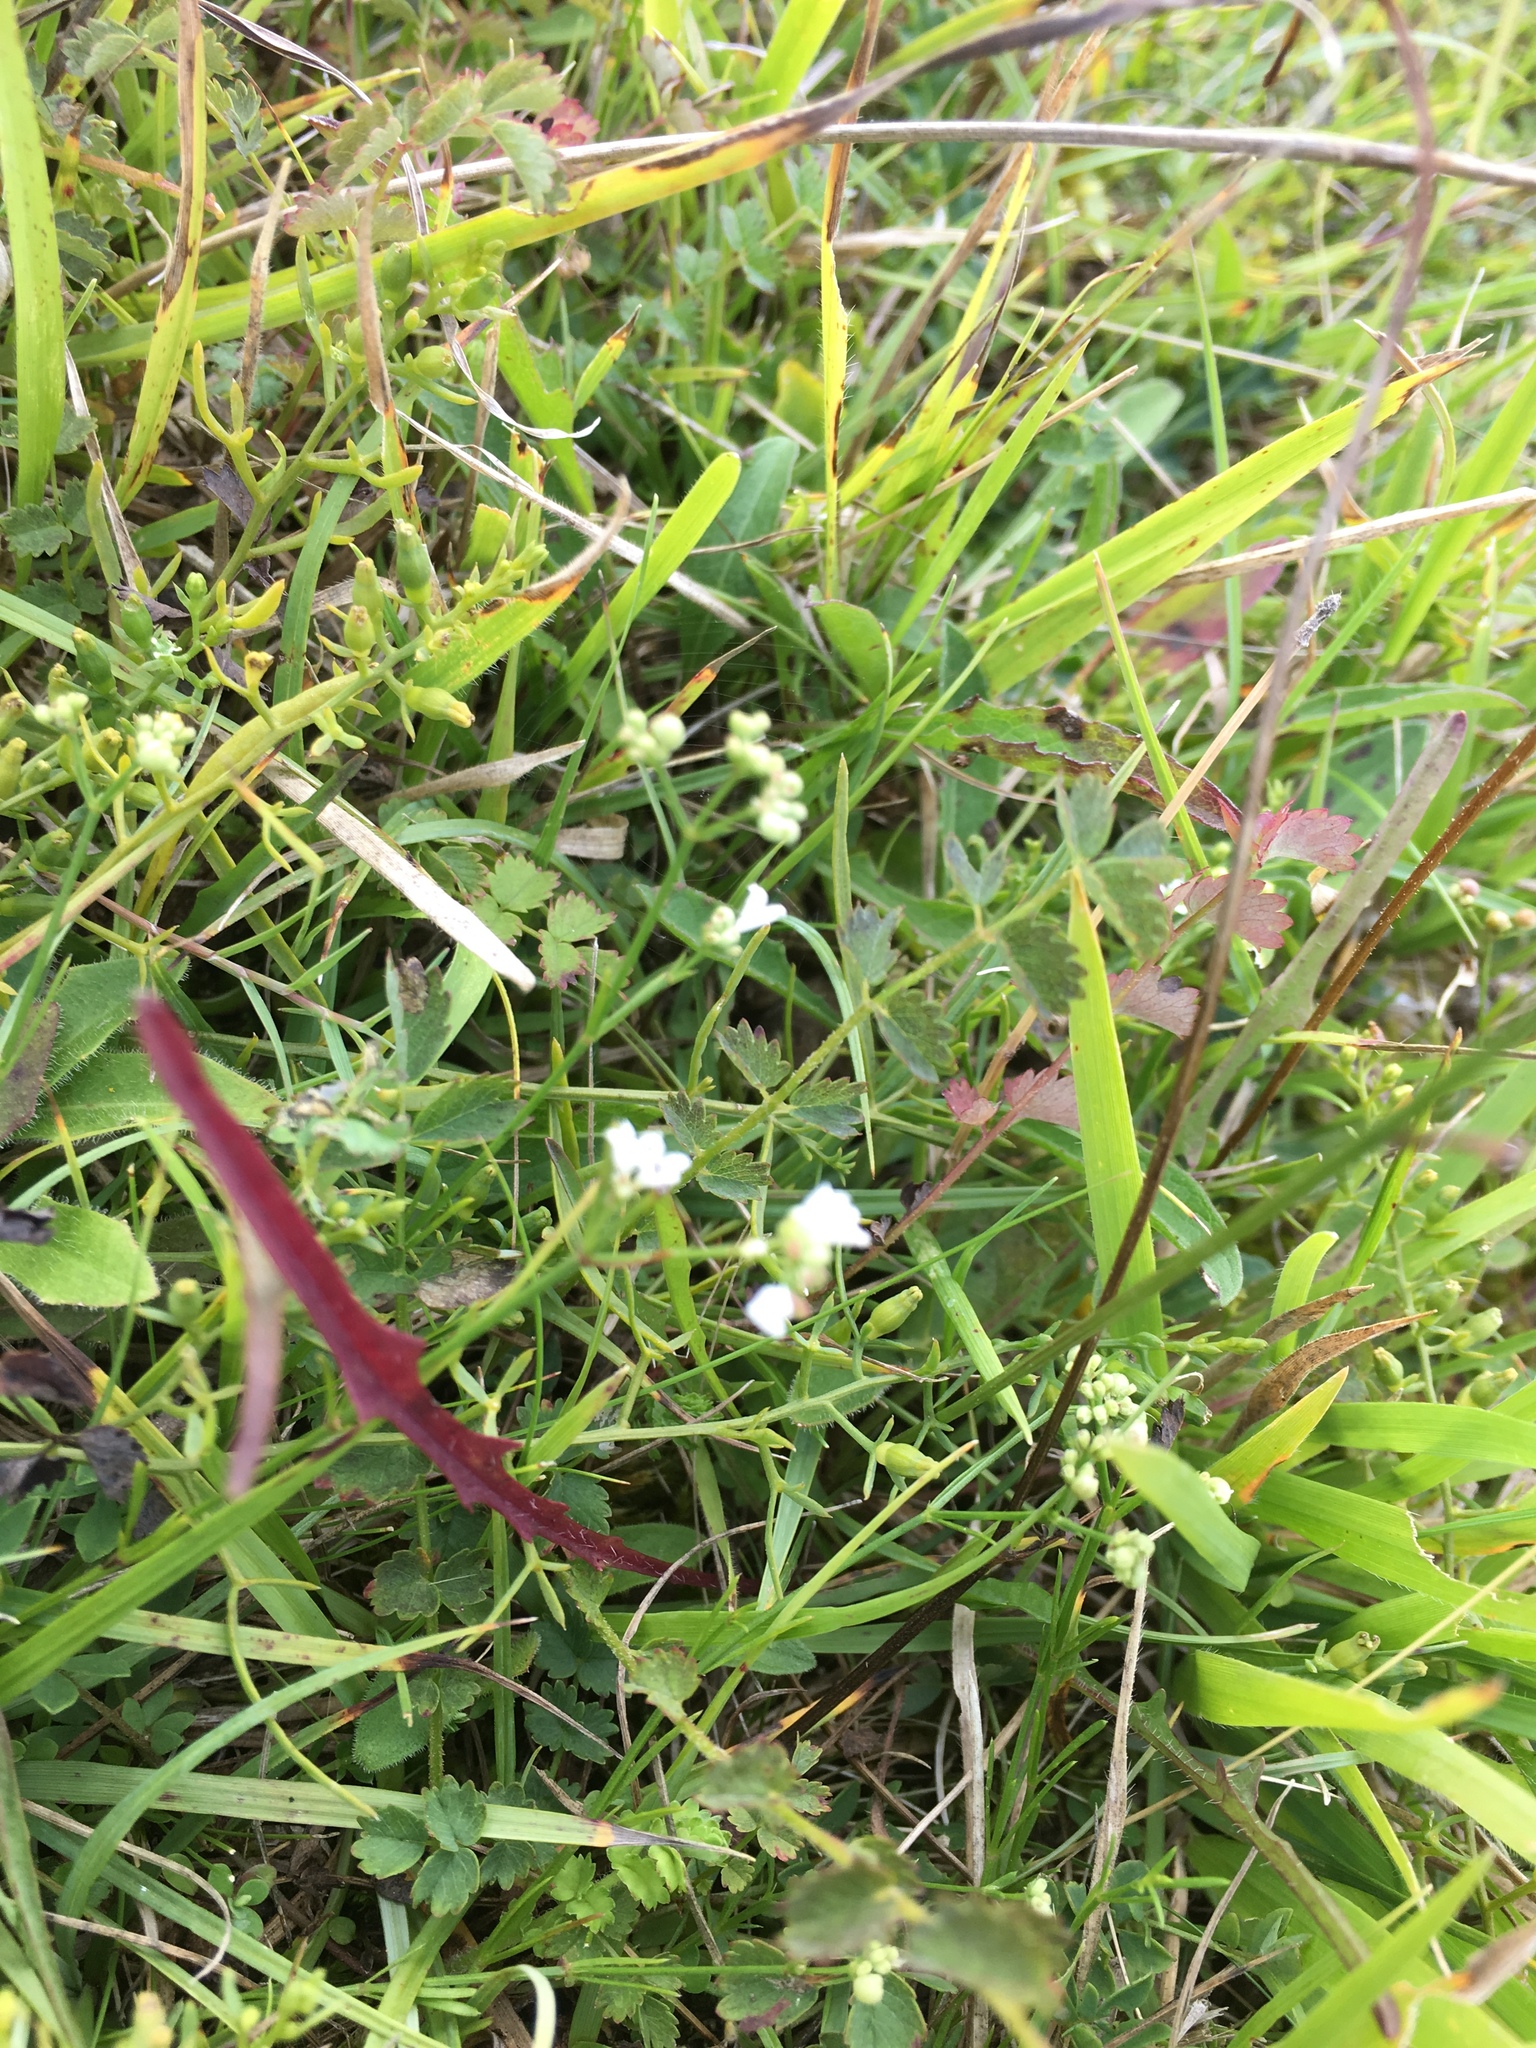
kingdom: Plantae
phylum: Tracheophyta
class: Magnoliopsida
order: Gentianales
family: Rubiaceae
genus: Cynanchica
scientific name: Cynanchica pyrenaica
